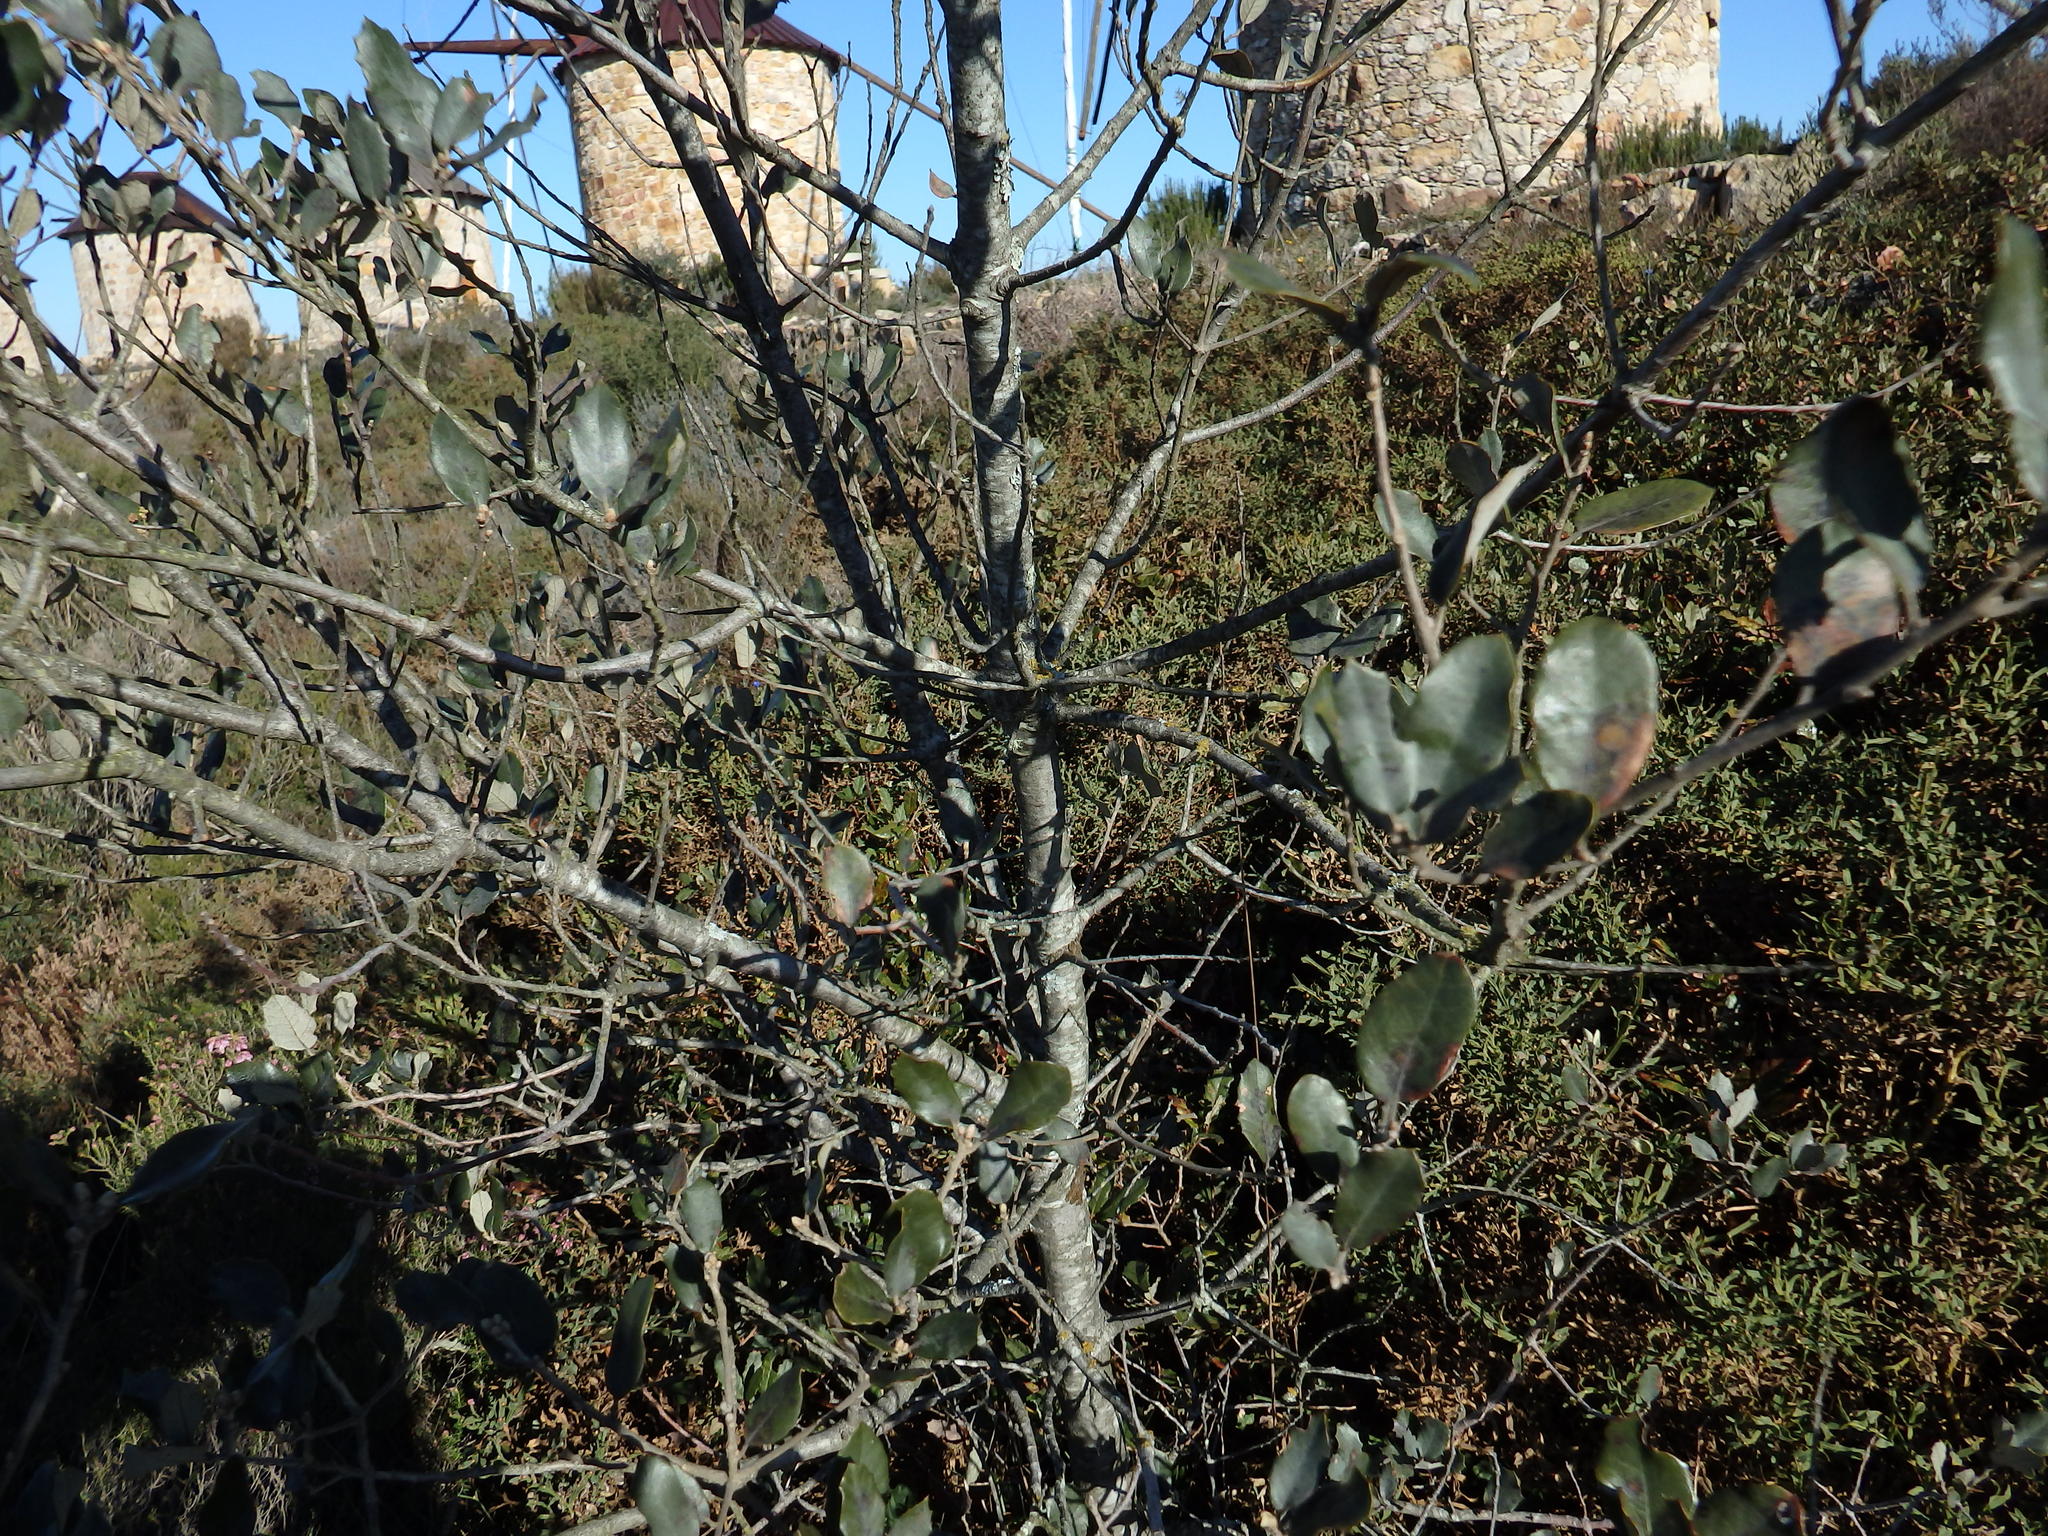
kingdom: Plantae
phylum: Tracheophyta
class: Magnoliopsida
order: Fagales
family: Fagaceae
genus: Quercus
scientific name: Quercus rotundifolia
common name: Holm oak
